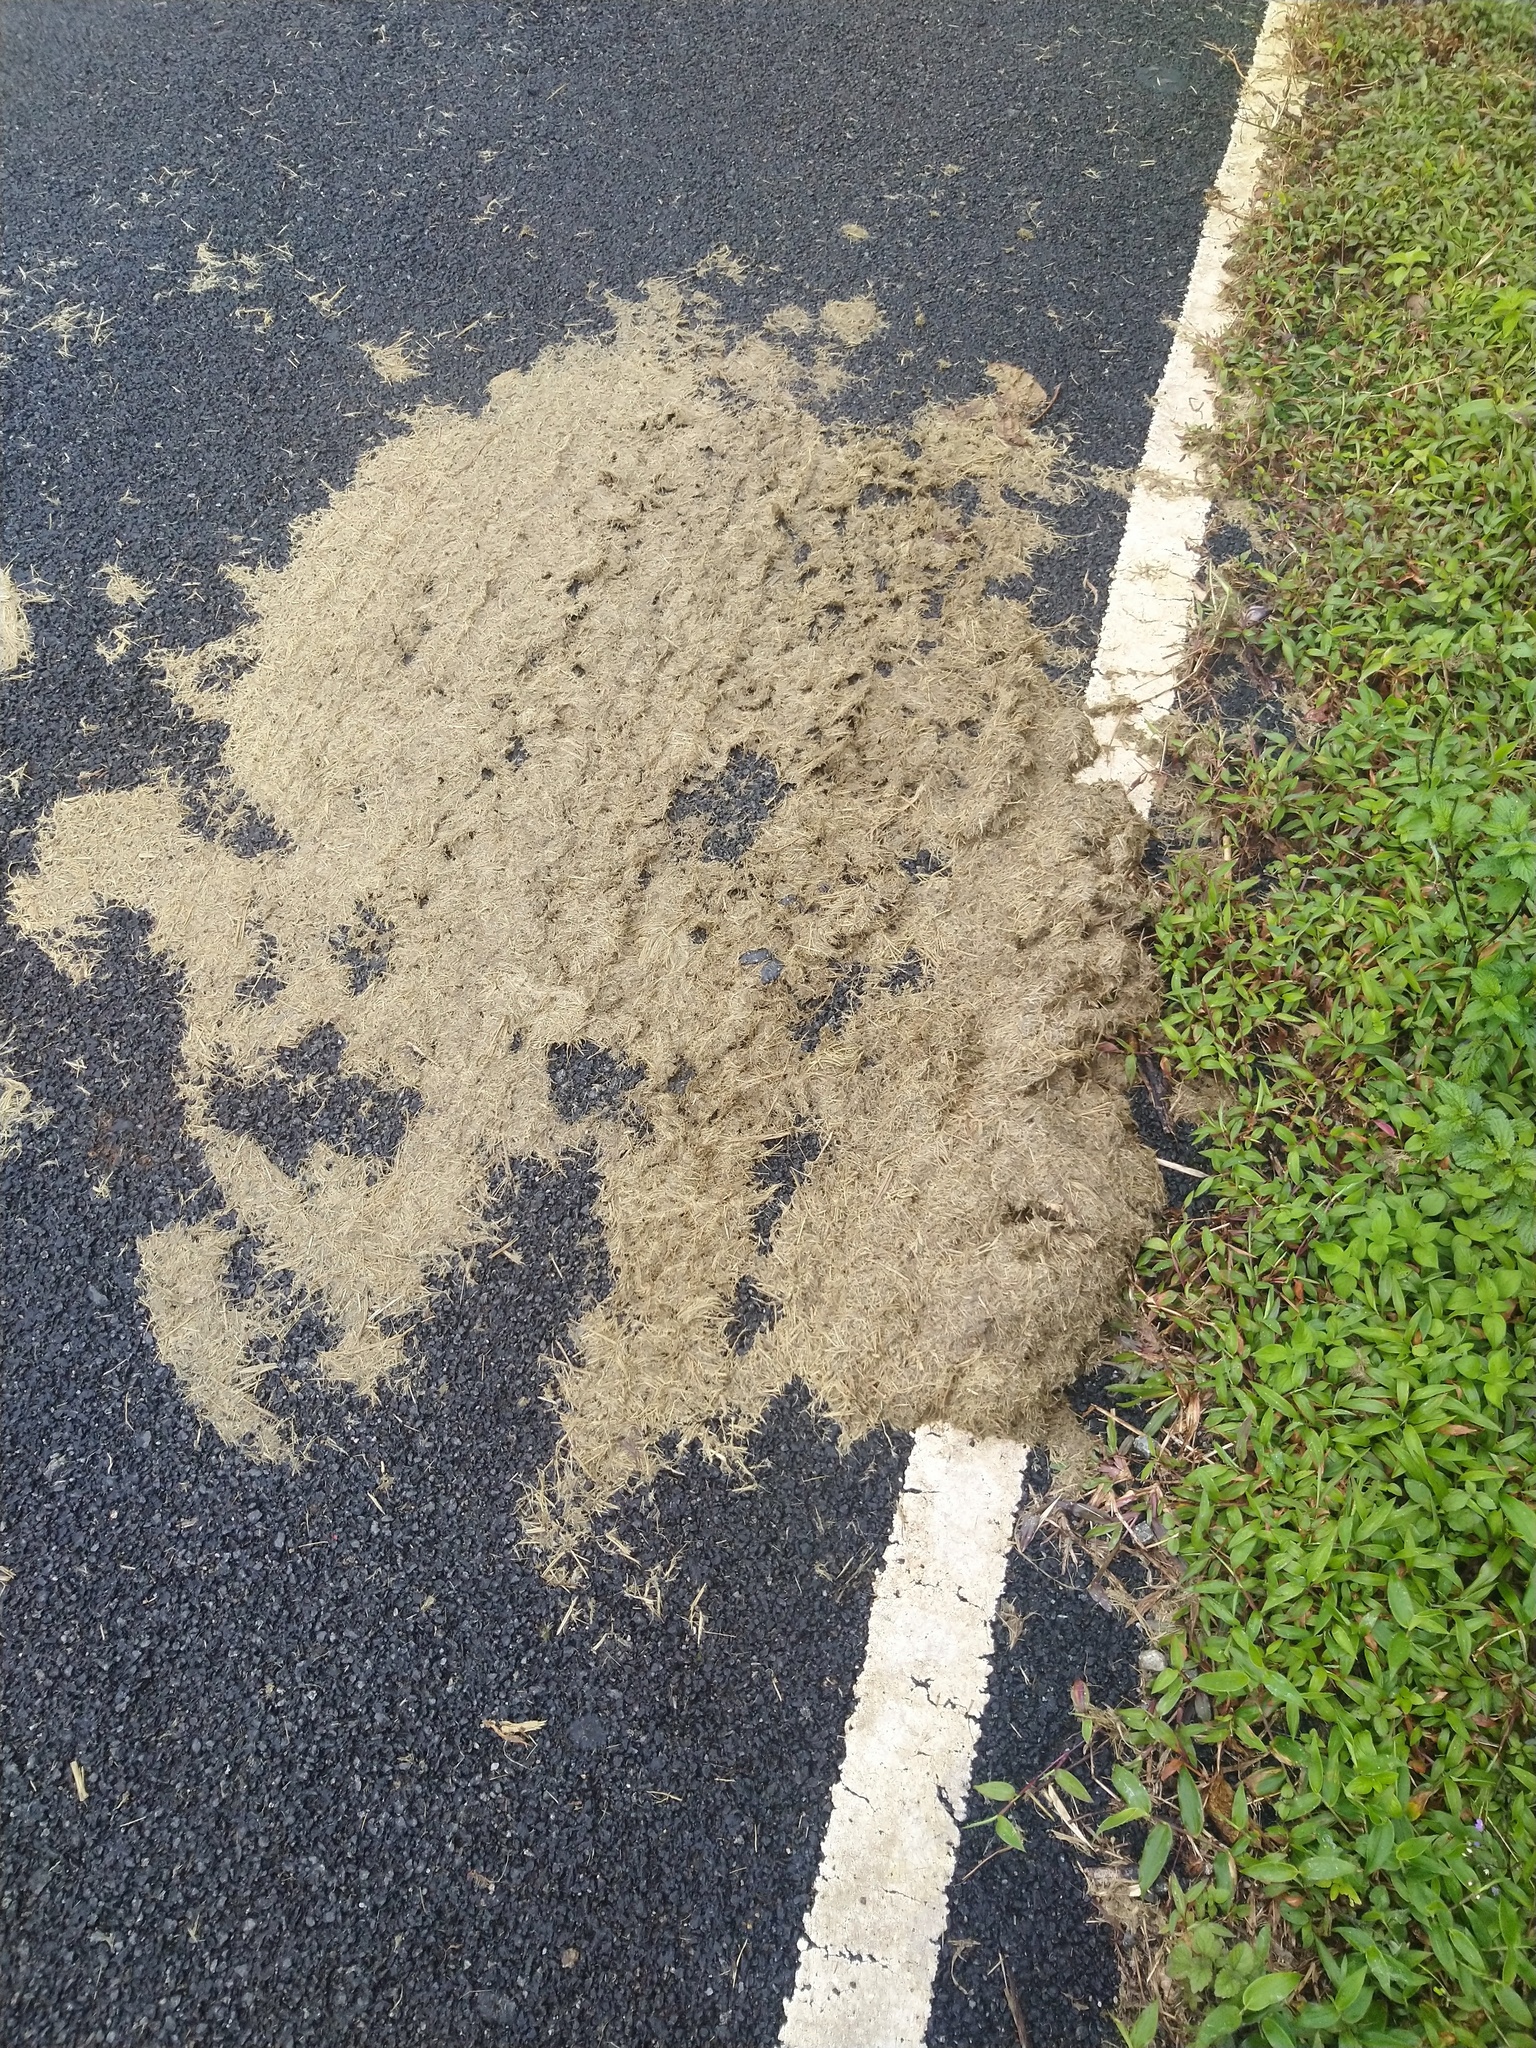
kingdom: Animalia
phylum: Chordata
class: Mammalia
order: Proboscidea
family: Elephantidae
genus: Elephas
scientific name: Elephas maximus
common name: Asian elephant
